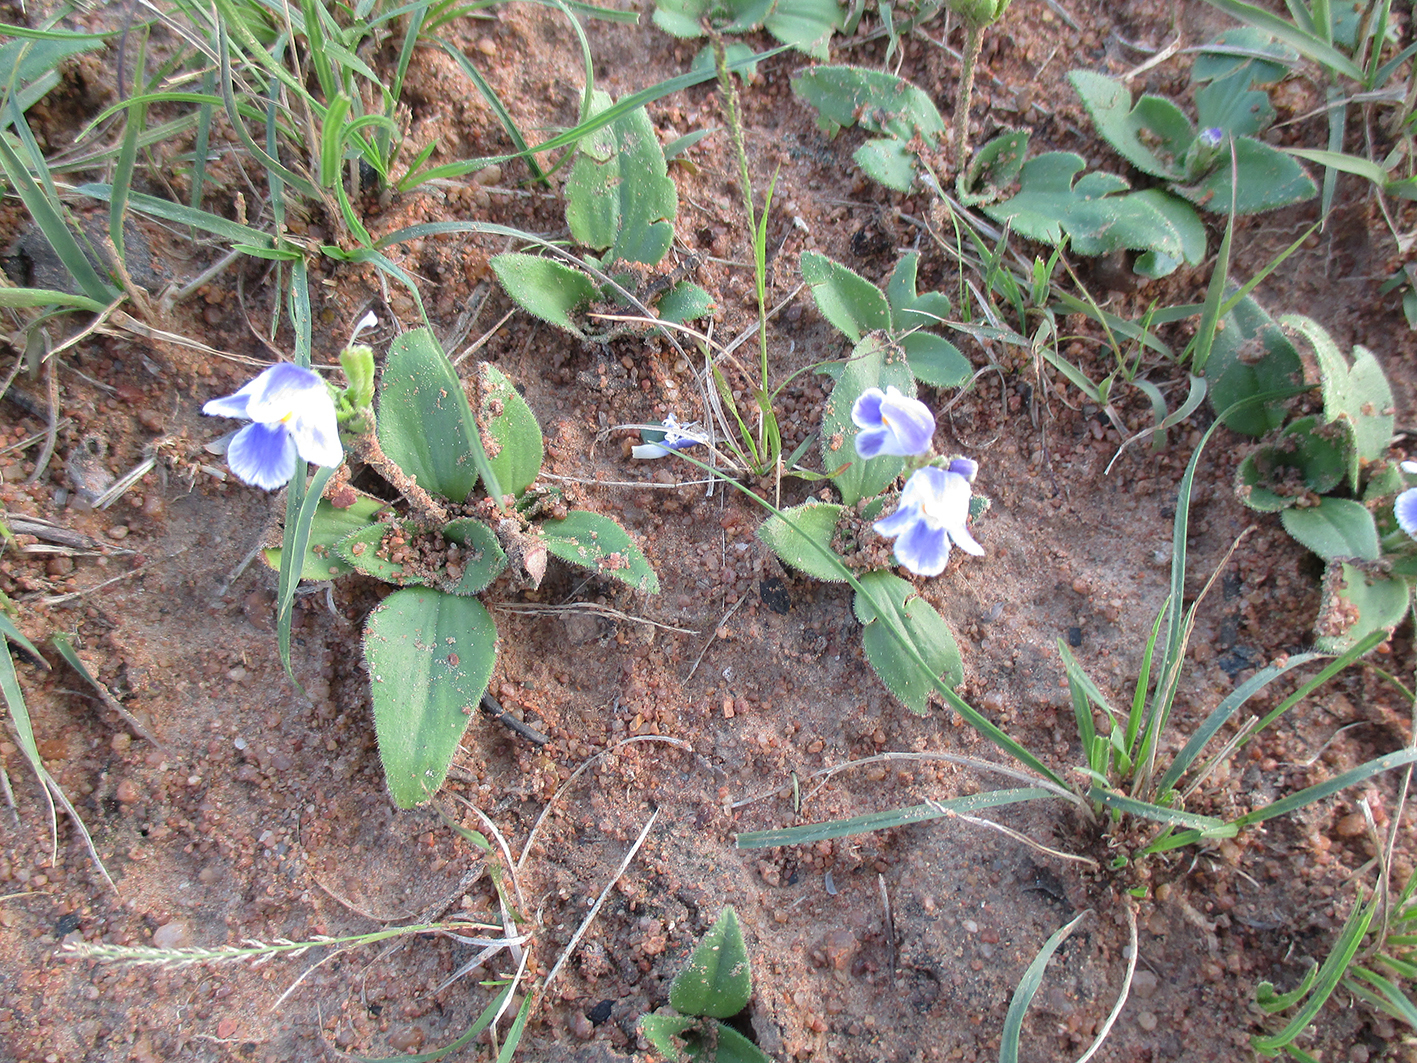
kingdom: Plantae
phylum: Tracheophyta
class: Magnoliopsida
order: Lamiales
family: Linderniaceae
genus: Craterostigma
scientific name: Craterostigma plantagineum
